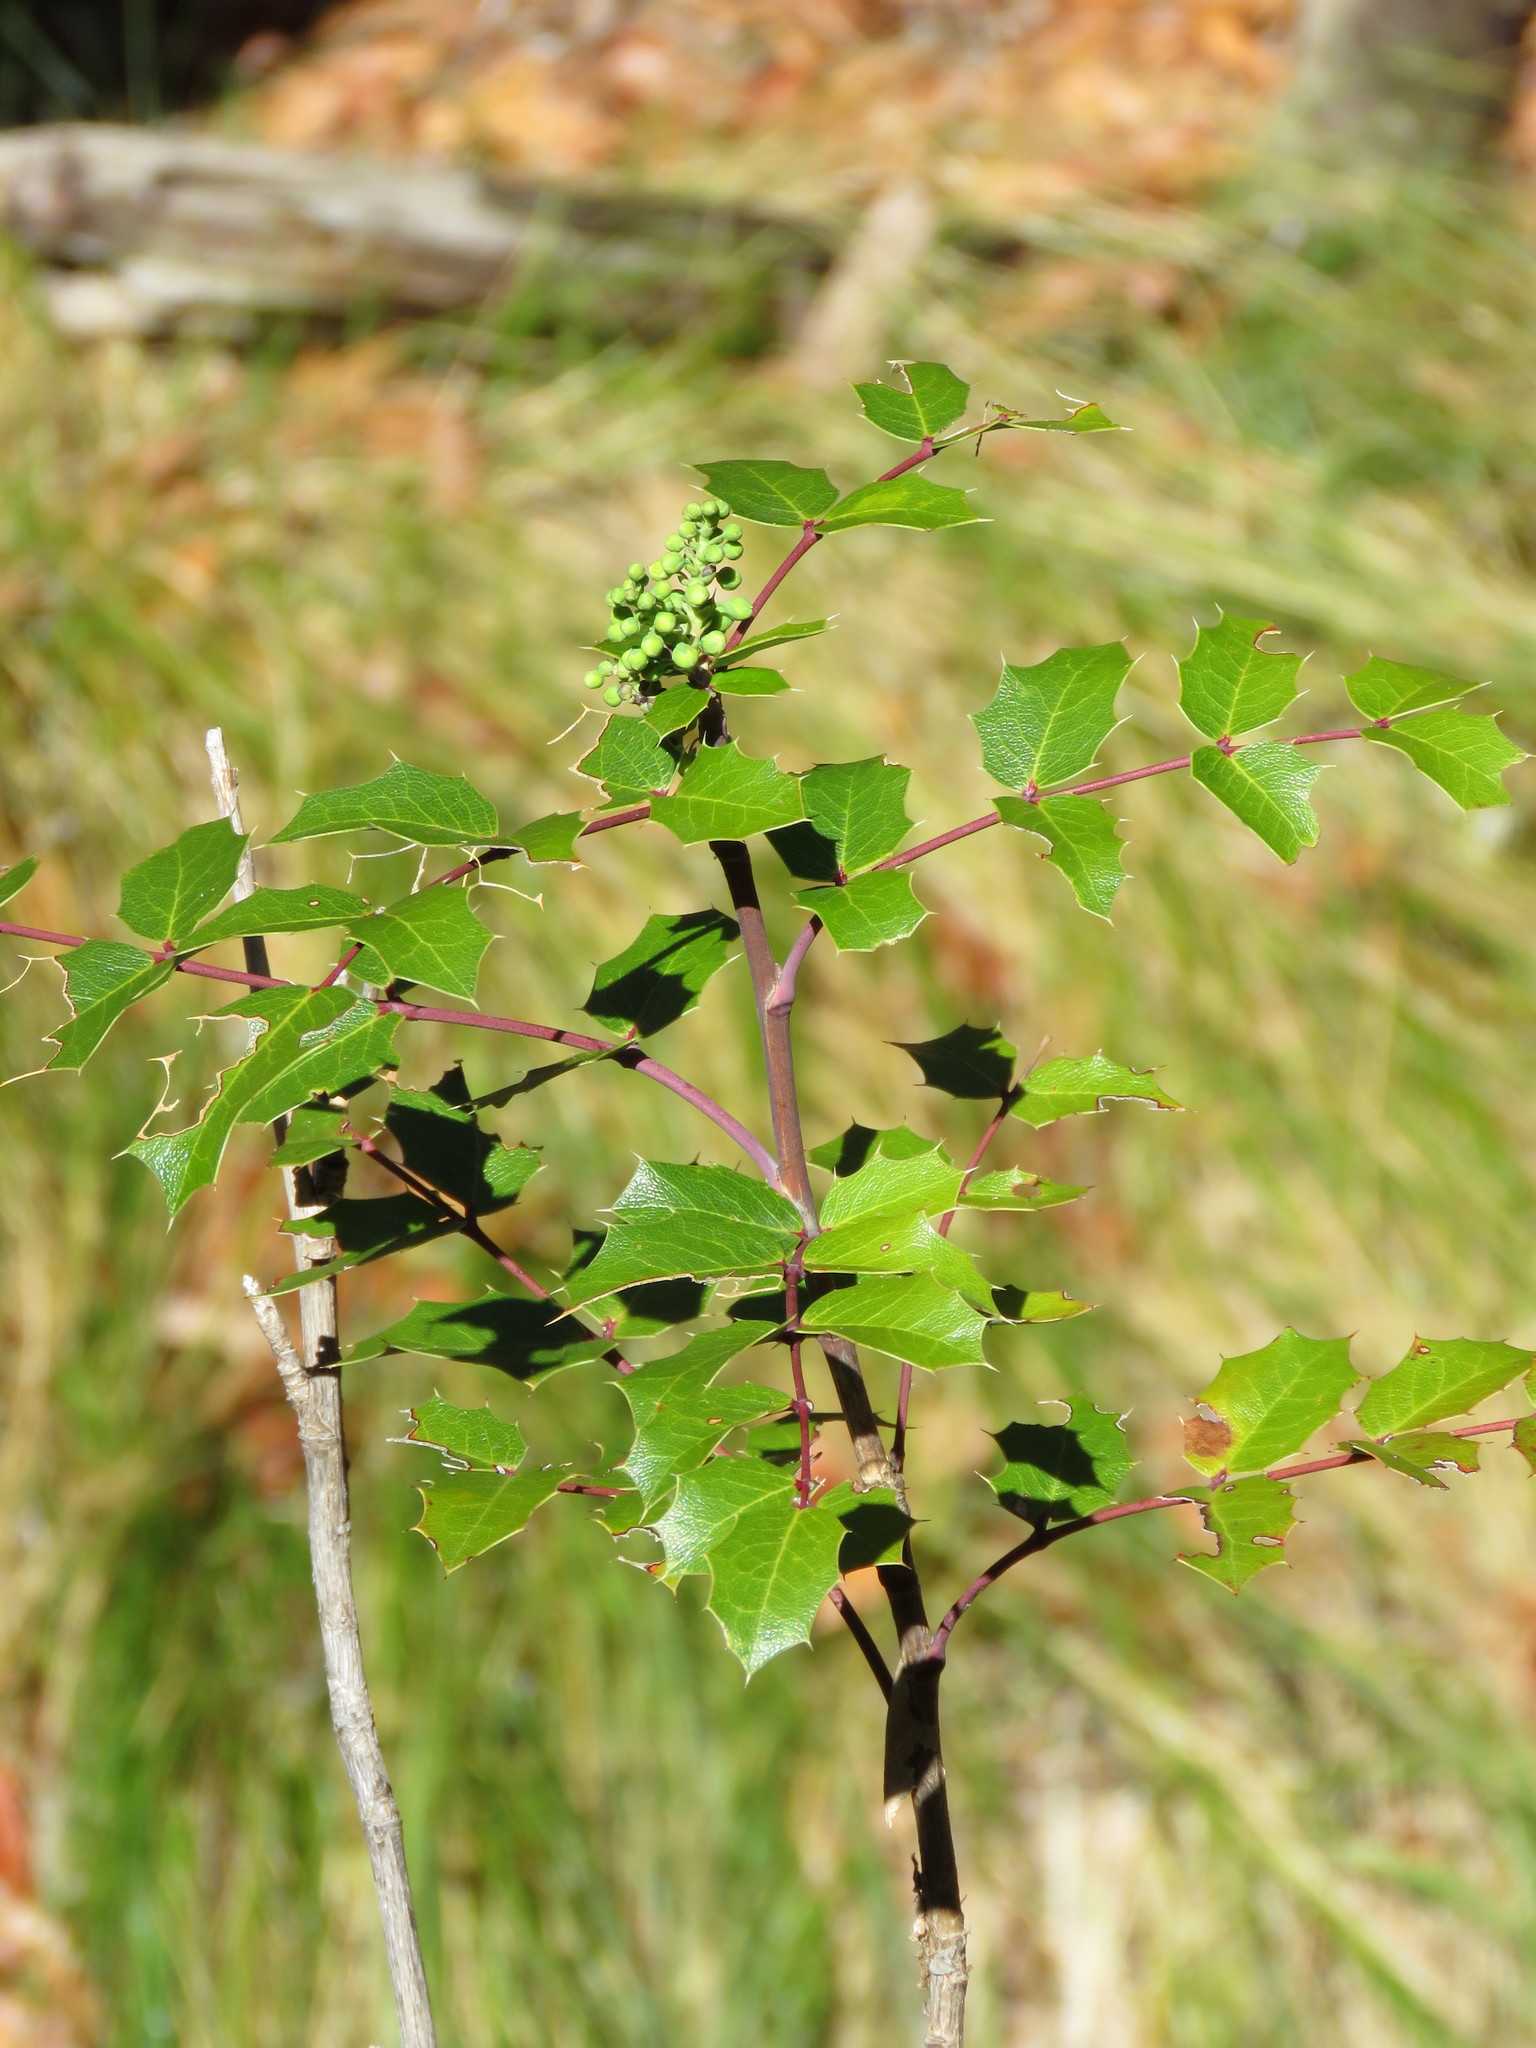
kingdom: Plantae
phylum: Tracheophyta
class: Magnoliopsida
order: Ranunculales
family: Berberidaceae
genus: Mahonia
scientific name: Mahonia wilcoxii
